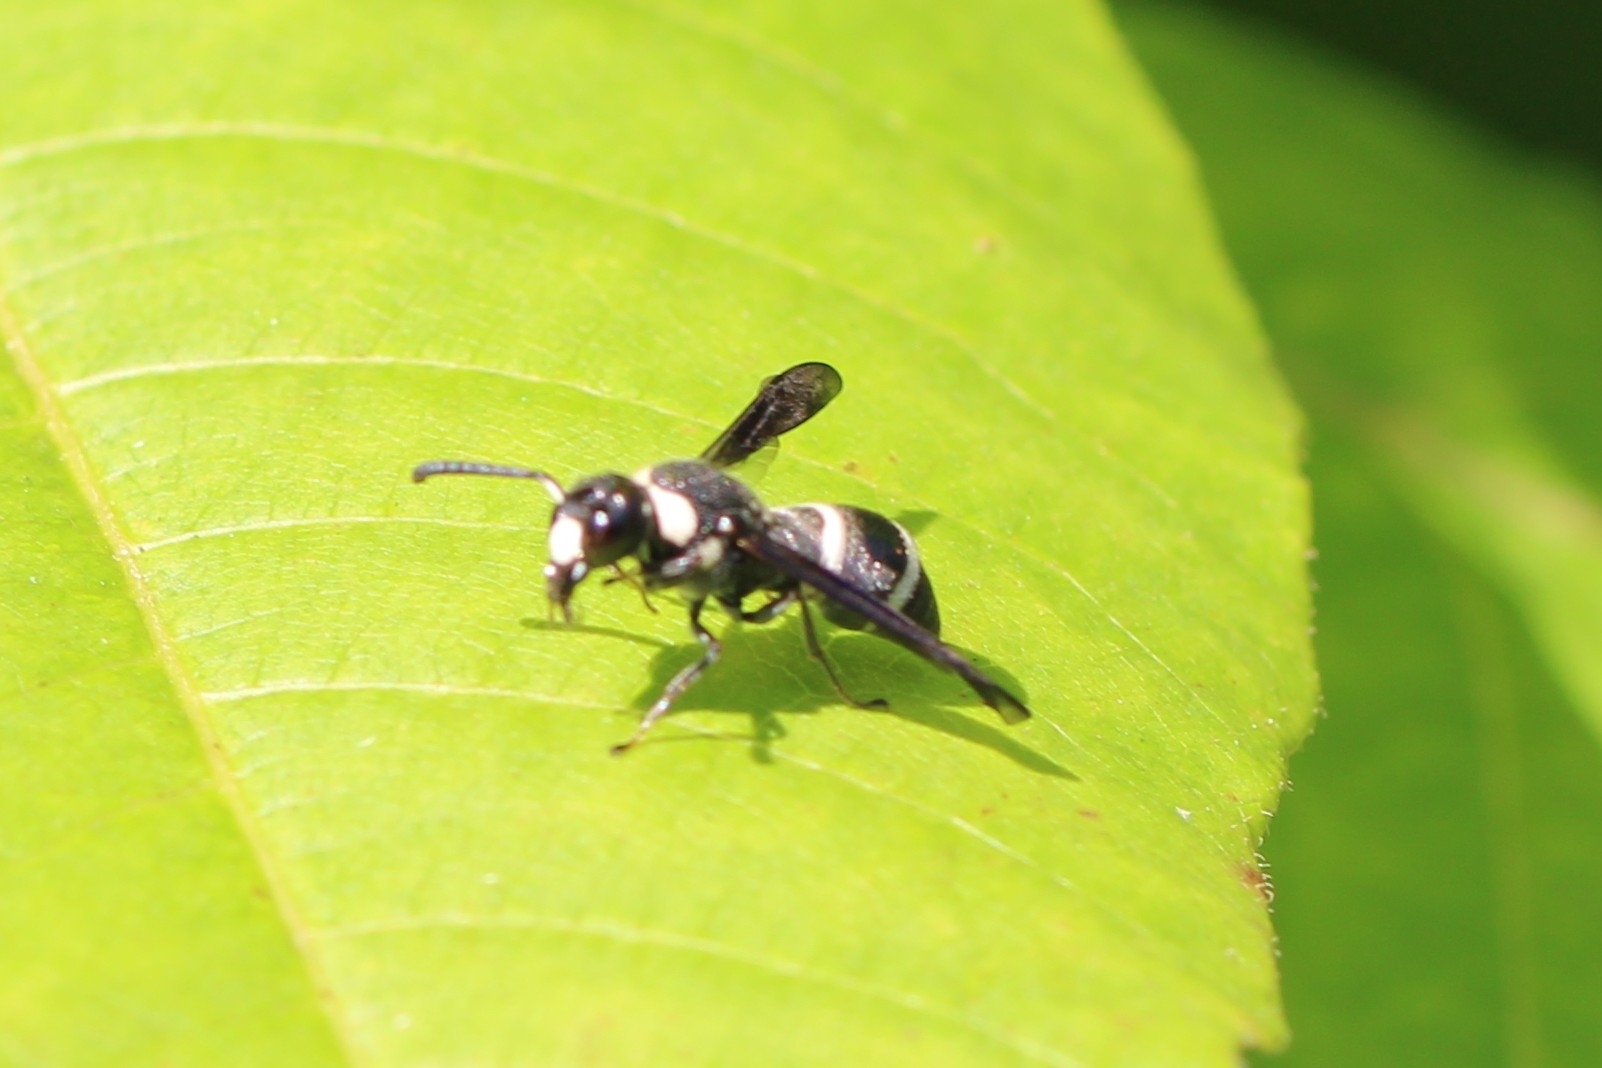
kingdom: Animalia
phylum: Arthropoda
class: Insecta
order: Hymenoptera
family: Eumenidae
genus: Euodynerus
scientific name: Euodynerus megaera
